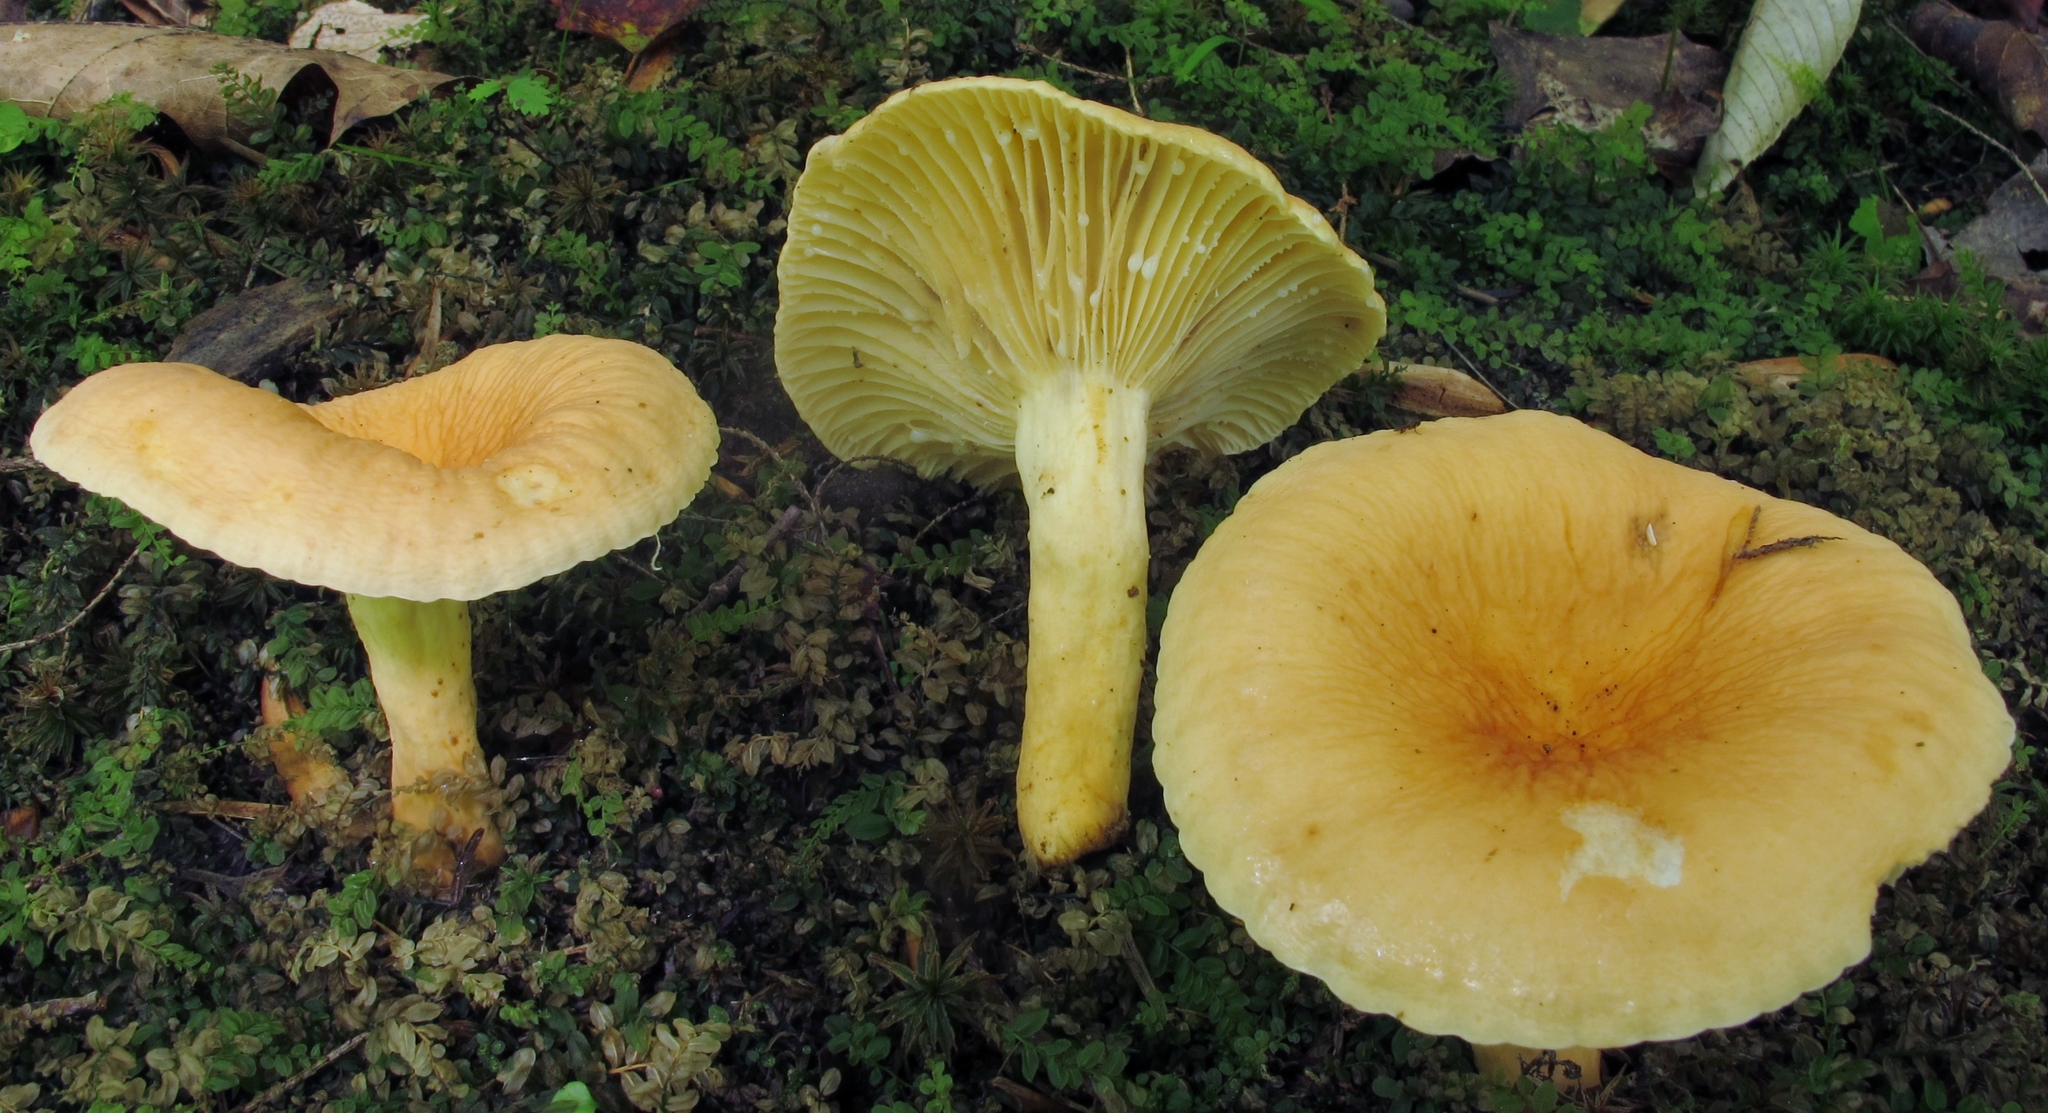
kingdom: Fungi
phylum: Basidiomycota
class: Agaricomycetes
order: Russulales
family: Russulaceae
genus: Lactarius
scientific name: Lactarius hygrophoroides
